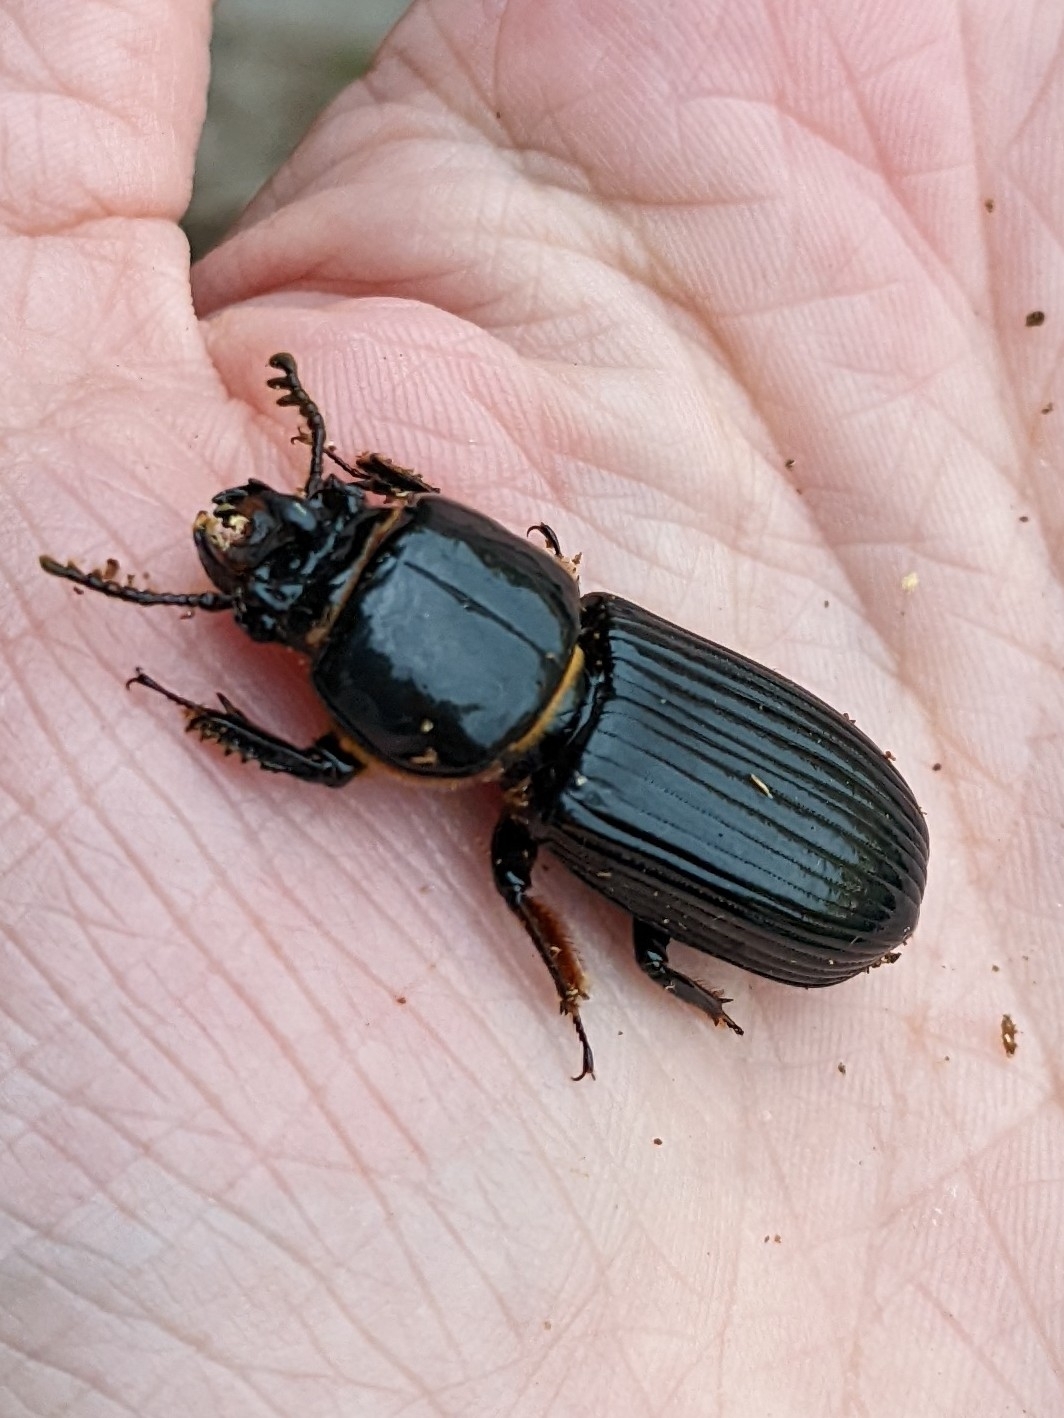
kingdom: Animalia
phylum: Arthropoda
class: Insecta
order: Coleoptera
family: Passalidae
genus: Odontotaenius
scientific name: Odontotaenius disjunctus
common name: Patent leather beetle
